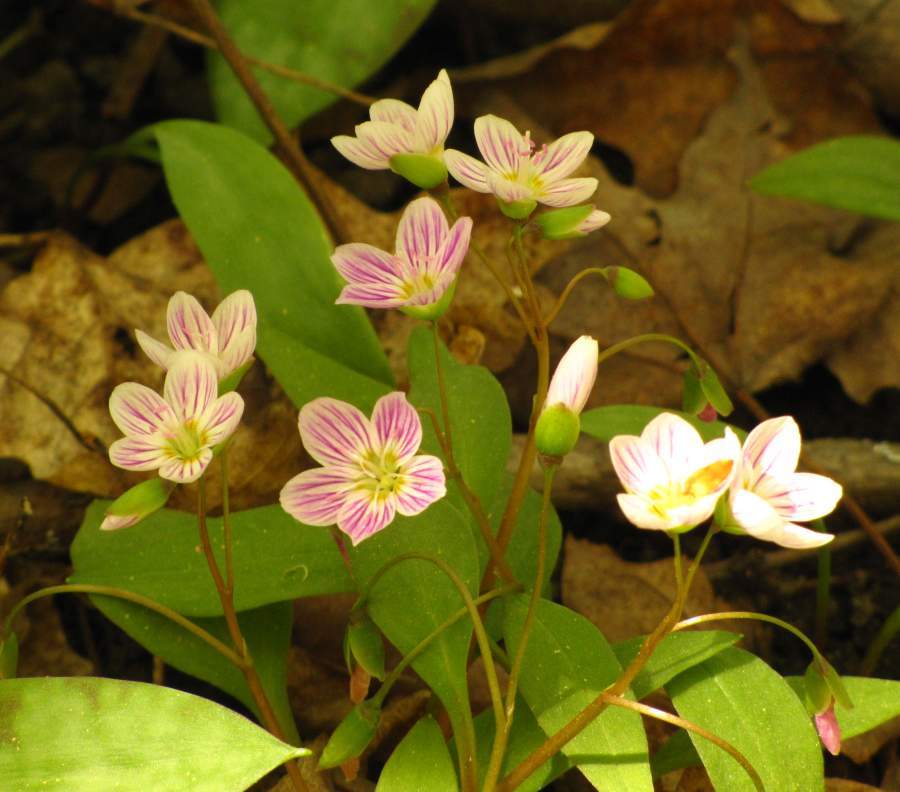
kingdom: Plantae
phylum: Tracheophyta
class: Magnoliopsida
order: Caryophyllales
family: Montiaceae
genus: Claytonia
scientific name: Claytonia caroliniana
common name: Carolina spring beauty
